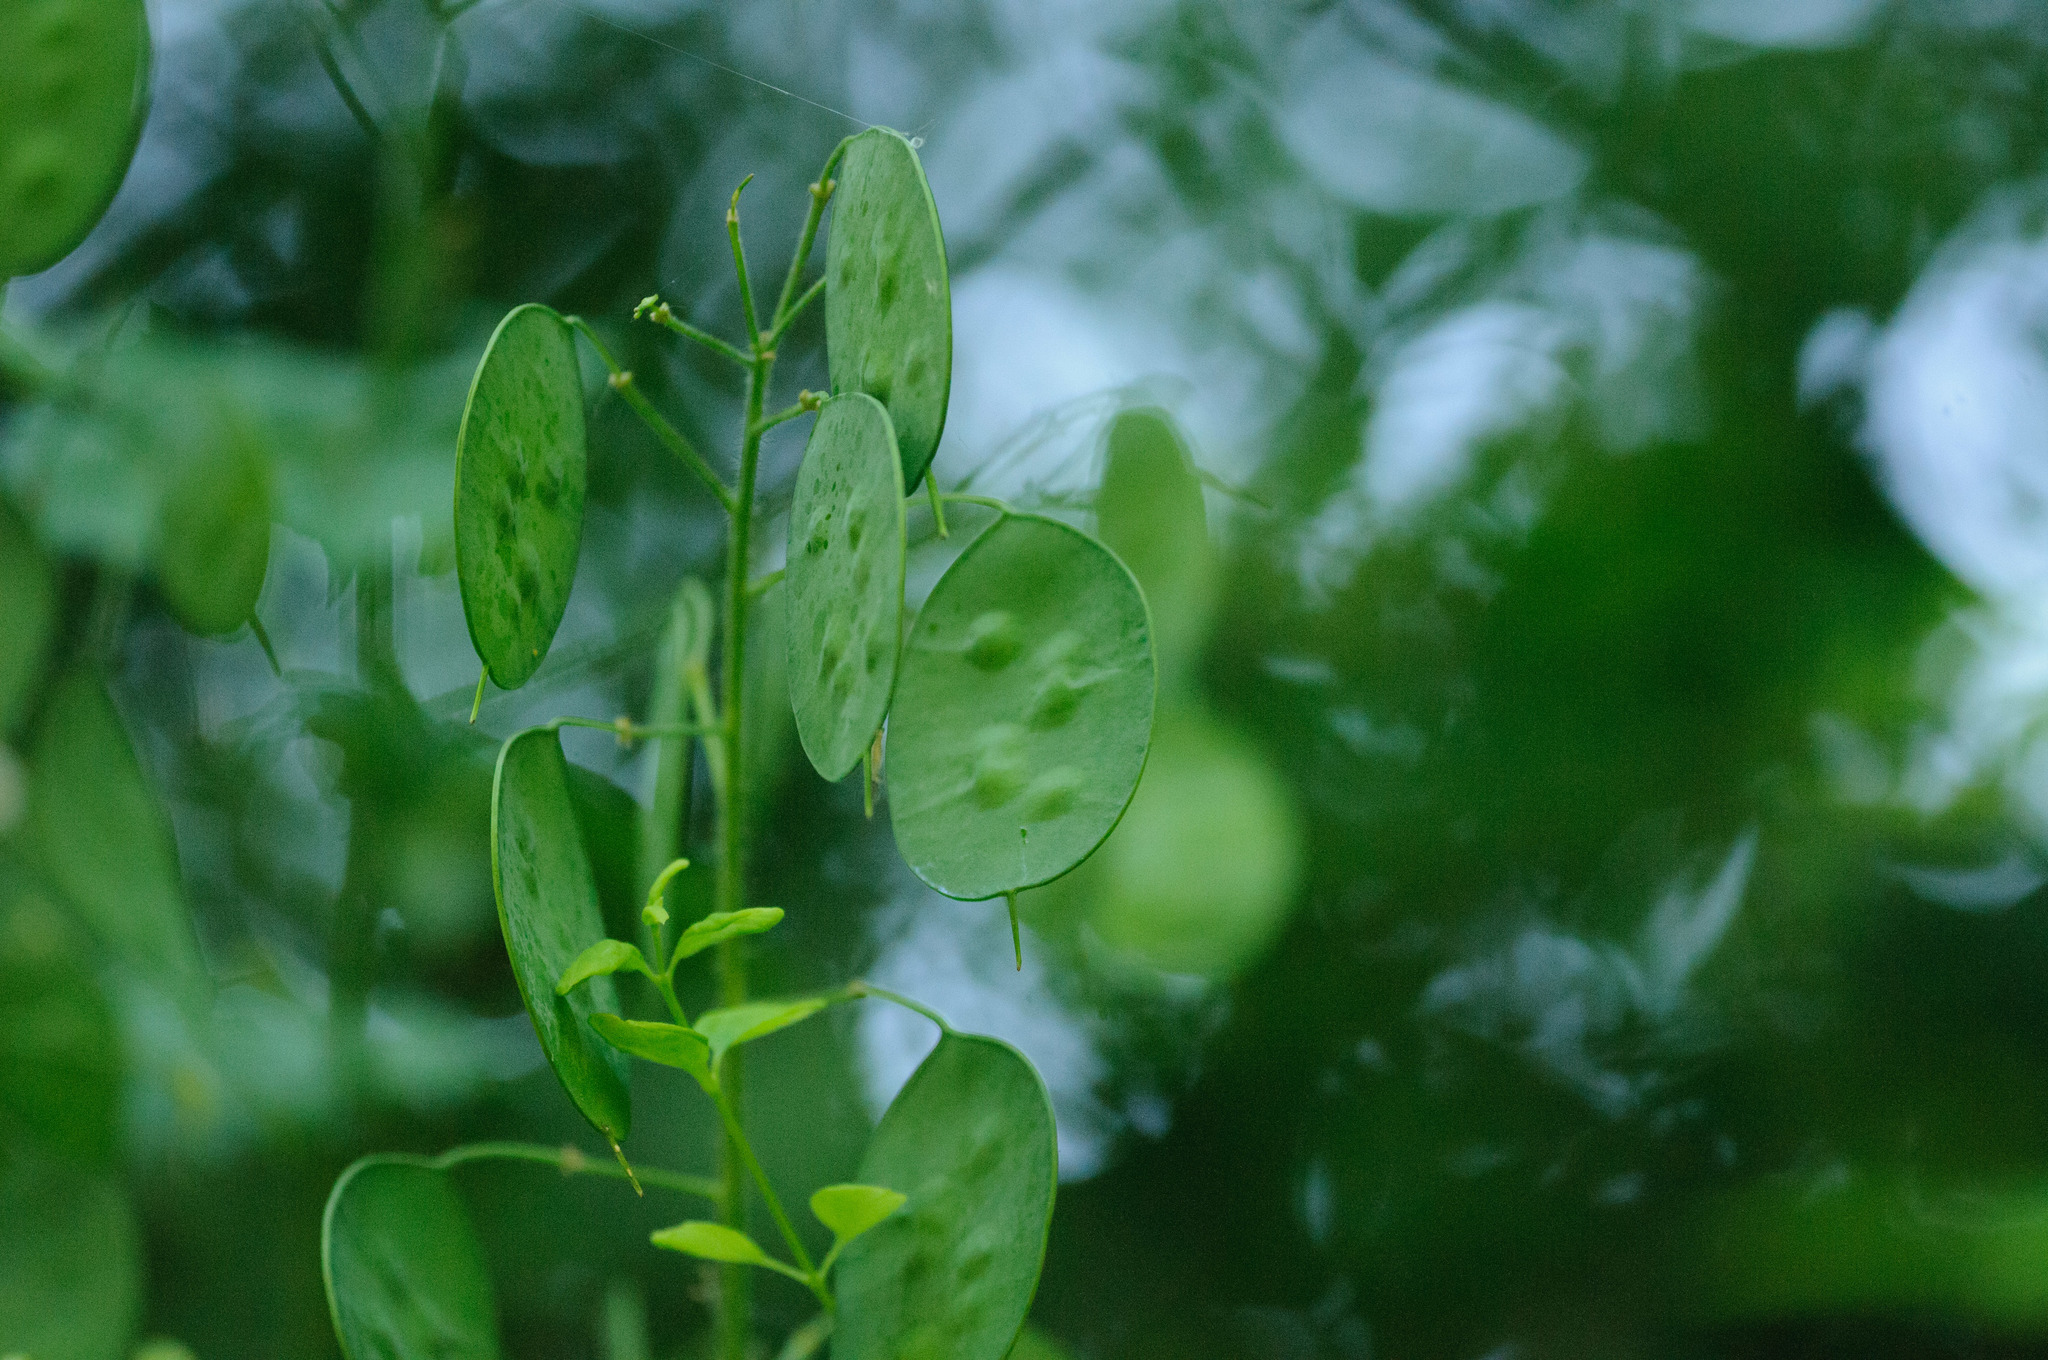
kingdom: Plantae
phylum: Tracheophyta
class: Magnoliopsida
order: Brassicales
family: Brassicaceae
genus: Lunaria
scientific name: Lunaria annua
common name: Honesty
